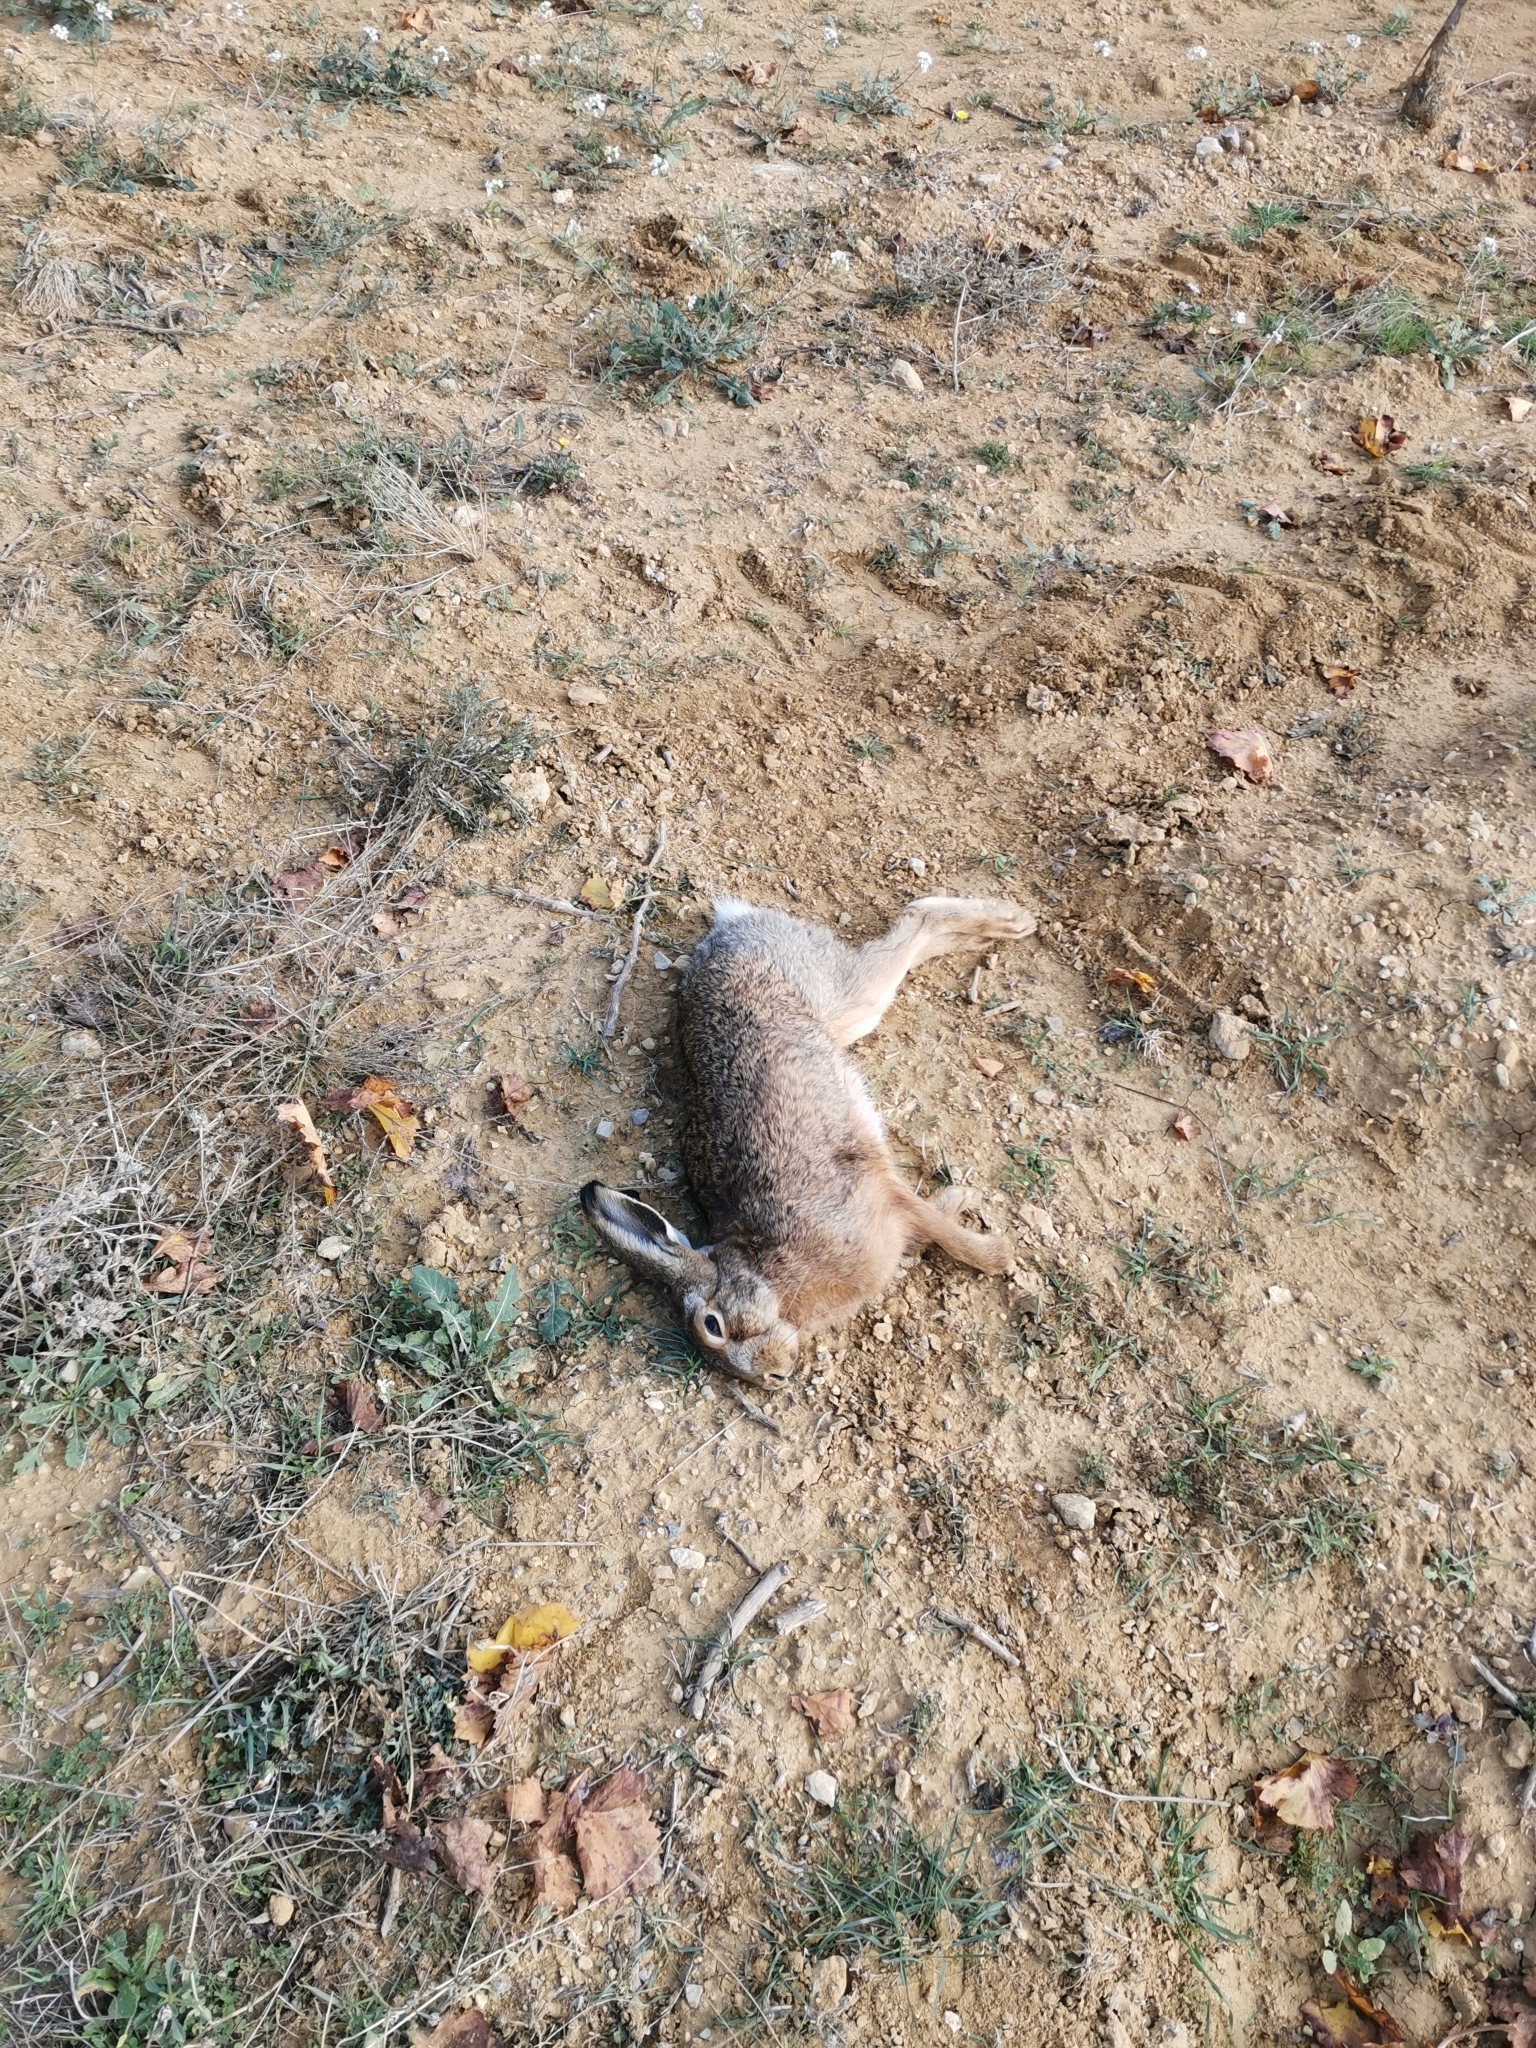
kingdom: Animalia
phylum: Chordata
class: Mammalia
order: Lagomorpha
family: Leporidae
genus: Lepus
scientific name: Lepus europaeus
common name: European hare
